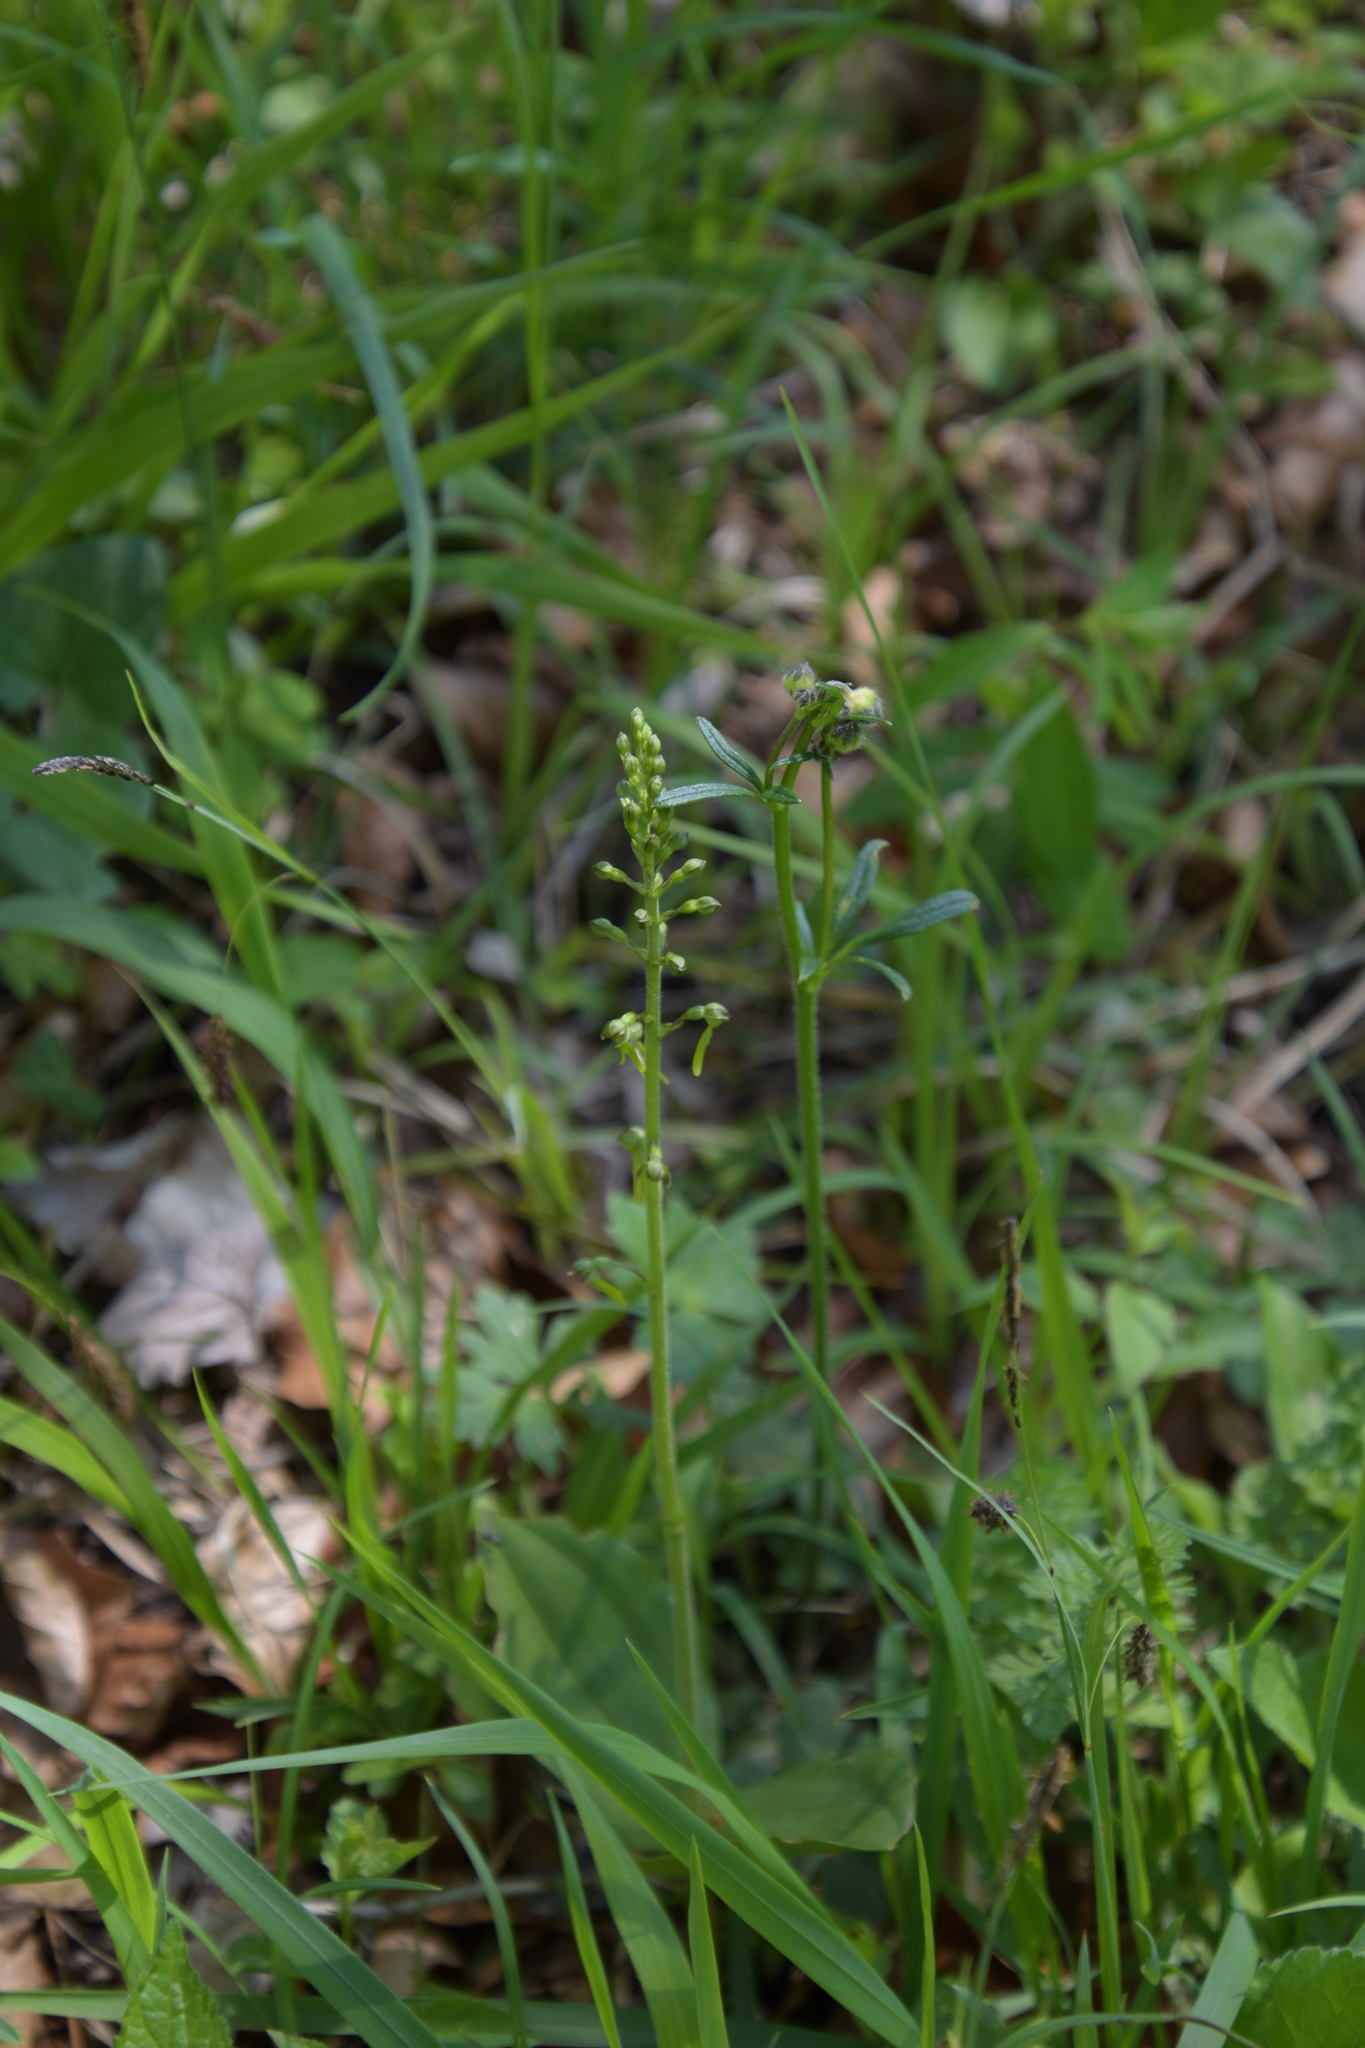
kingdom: Plantae
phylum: Tracheophyta
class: Liliopsida
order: Asparagales
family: Orchidaceae
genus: Neottia
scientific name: Neottia ovata
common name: Common twayblade
